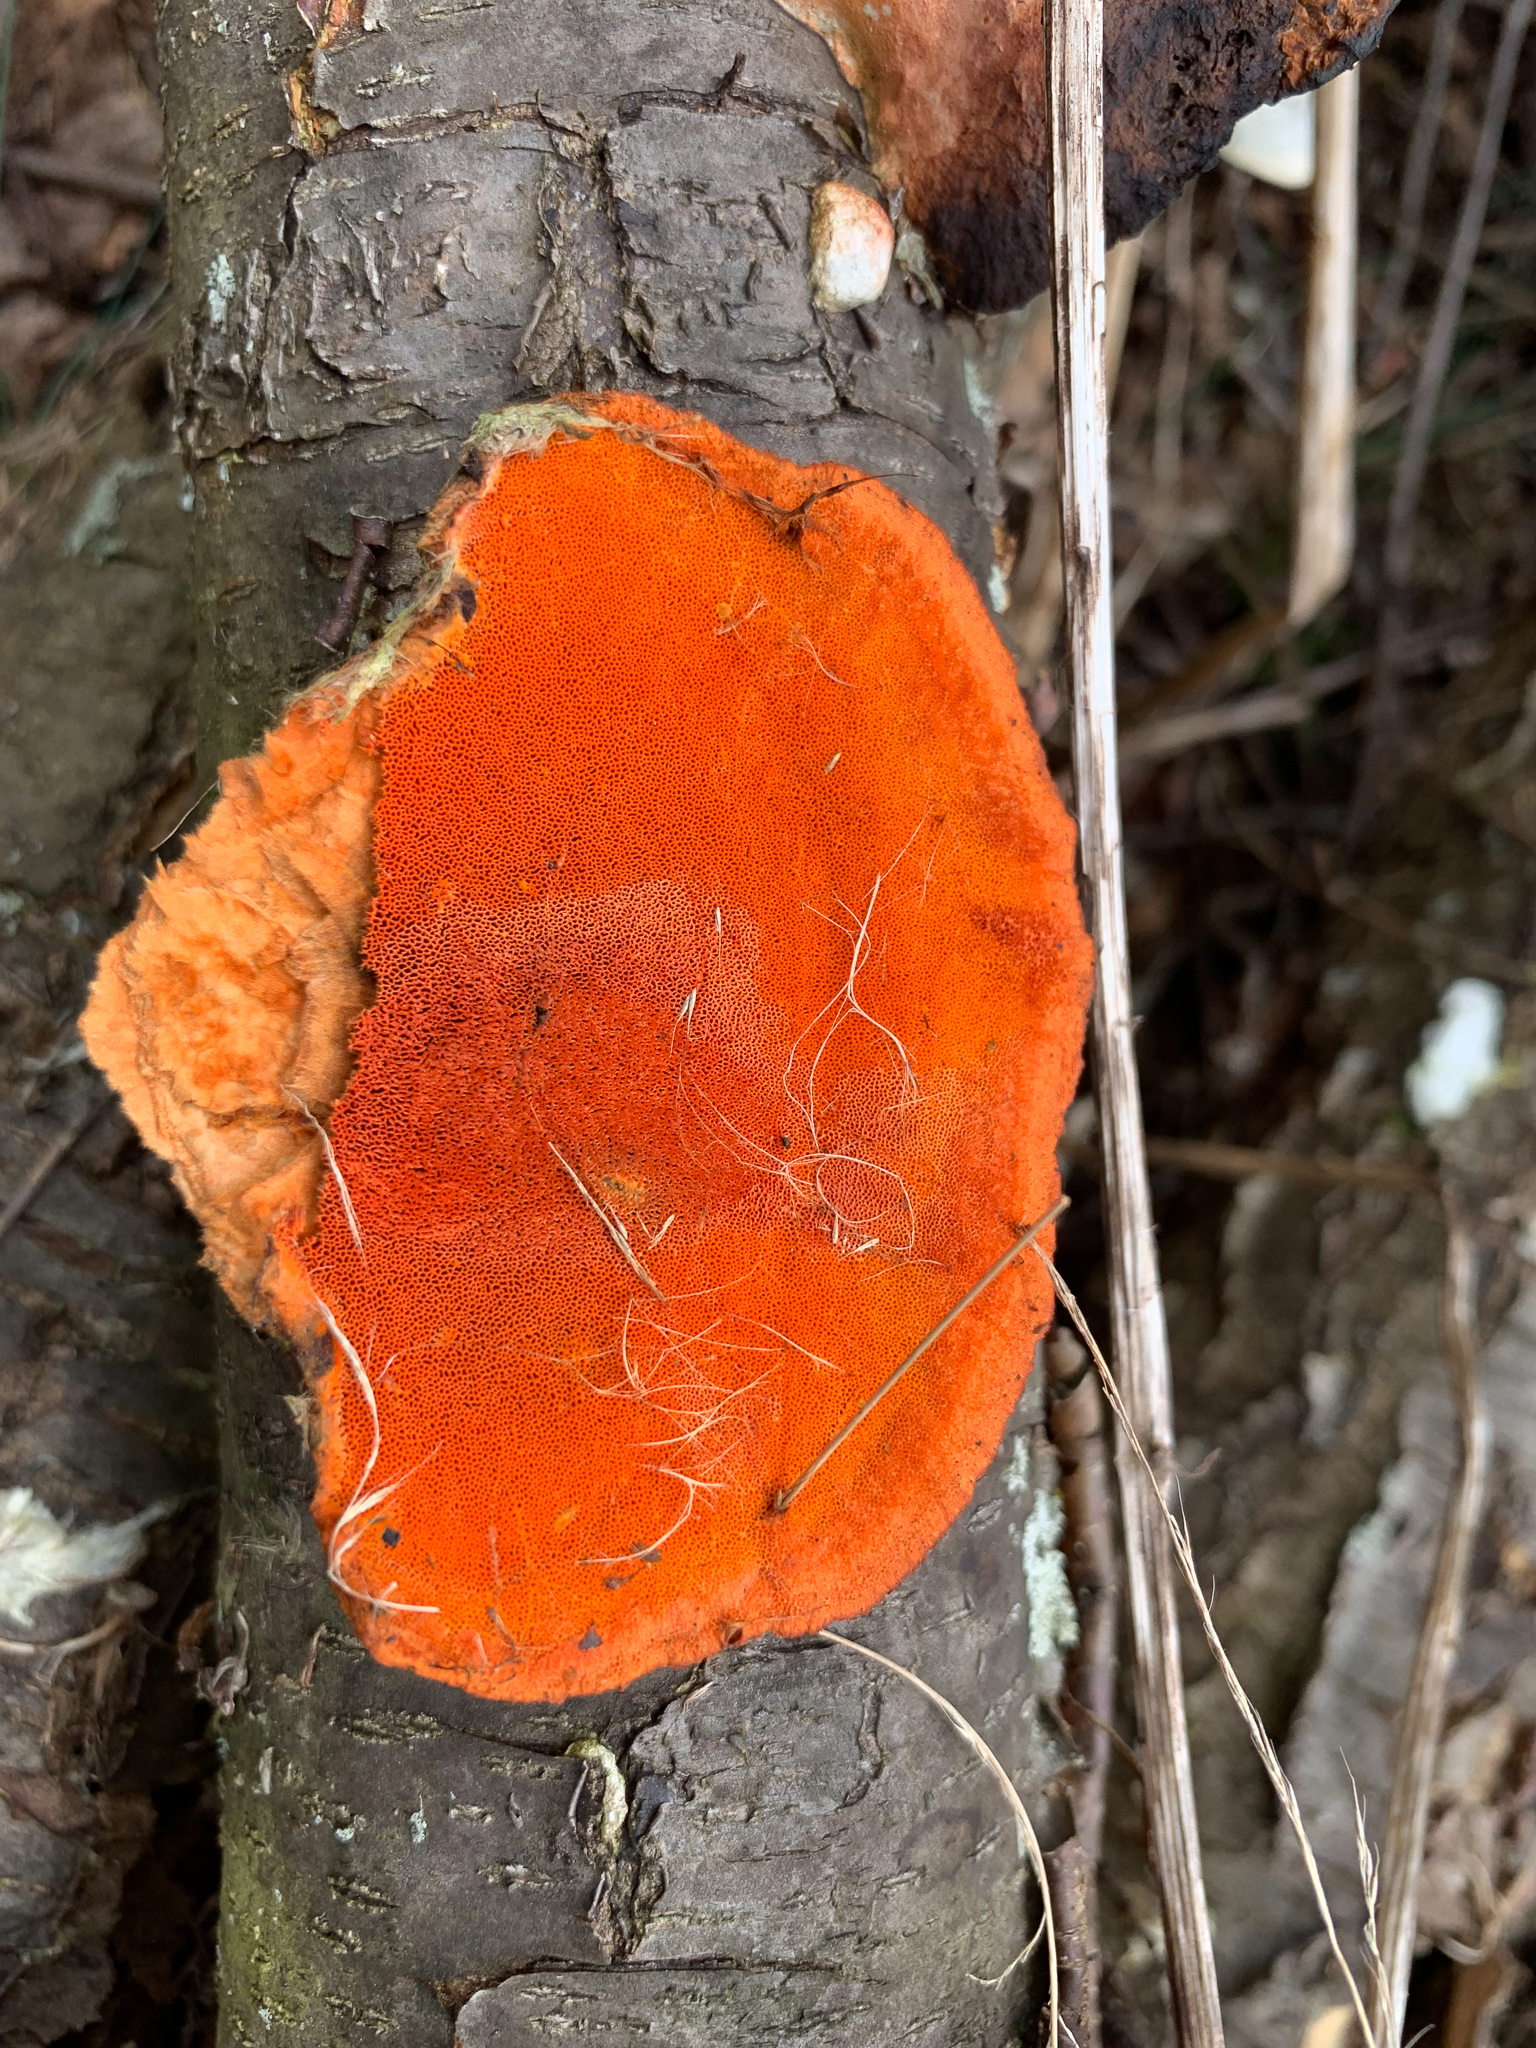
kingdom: Fungi
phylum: Basidiomycota
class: Agaricomycetes
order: Polyporales
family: Polyporaceae
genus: Trametes
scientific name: Trametes cinnabarina
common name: Northern cinnabar polypore
